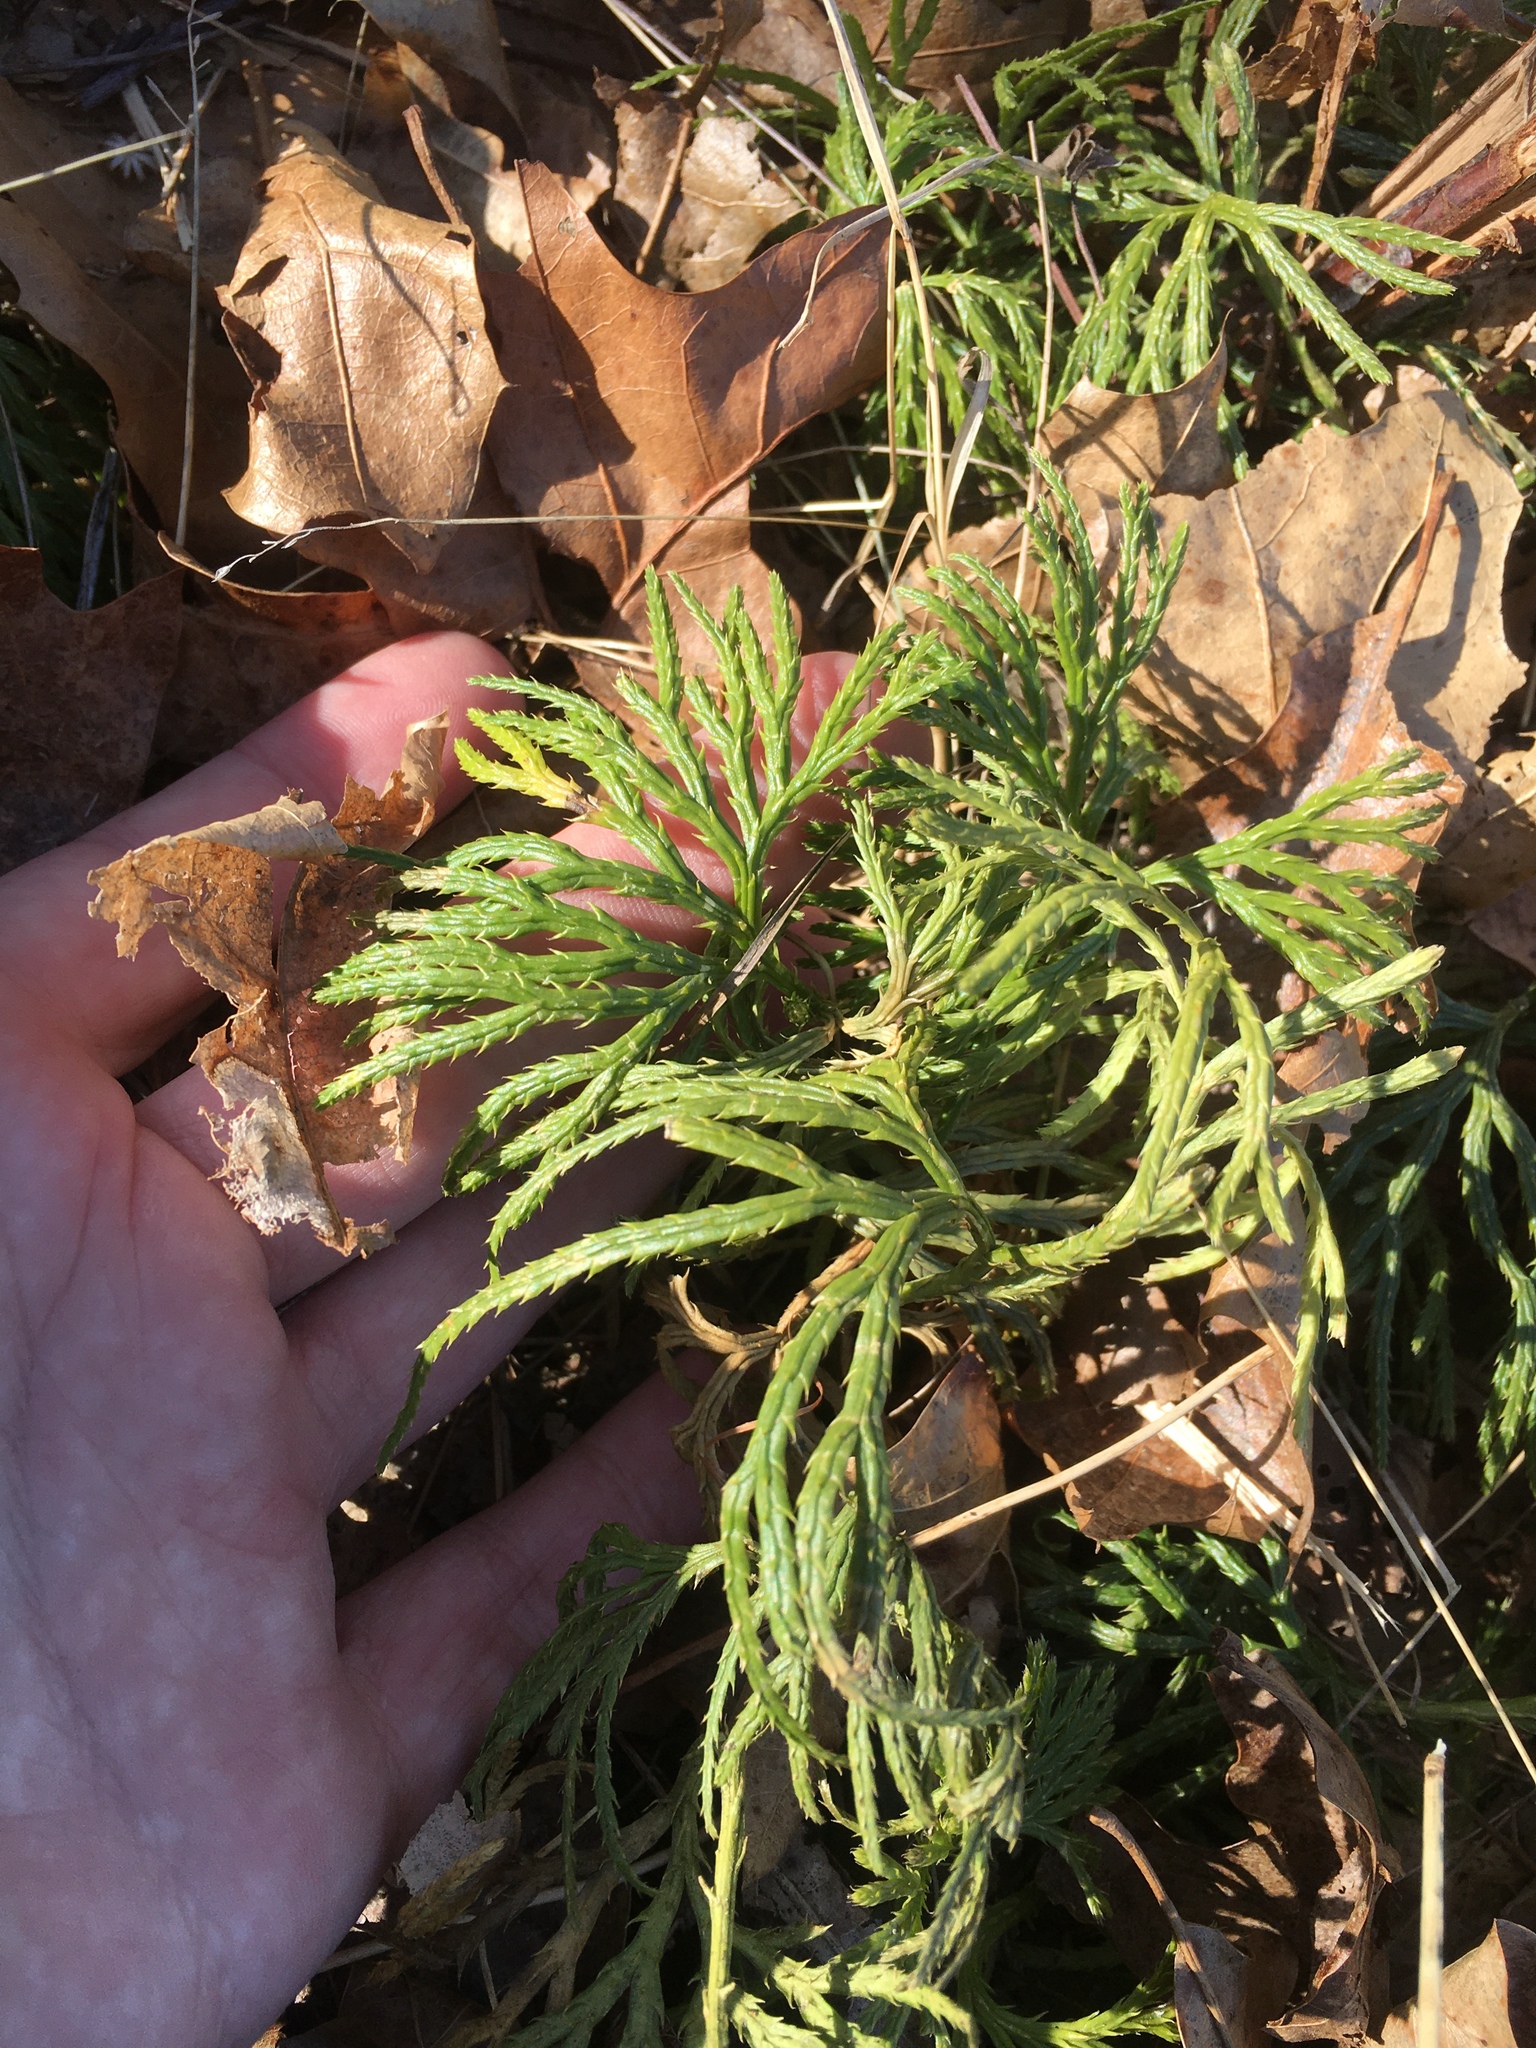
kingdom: Plantae
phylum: Tracheophyta
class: Lycopodiopsida
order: Lycopodiales
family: Lycopodiaceae
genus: Diphasiastrum
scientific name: Diphasiastrum digitatum
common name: Southern running-pine
